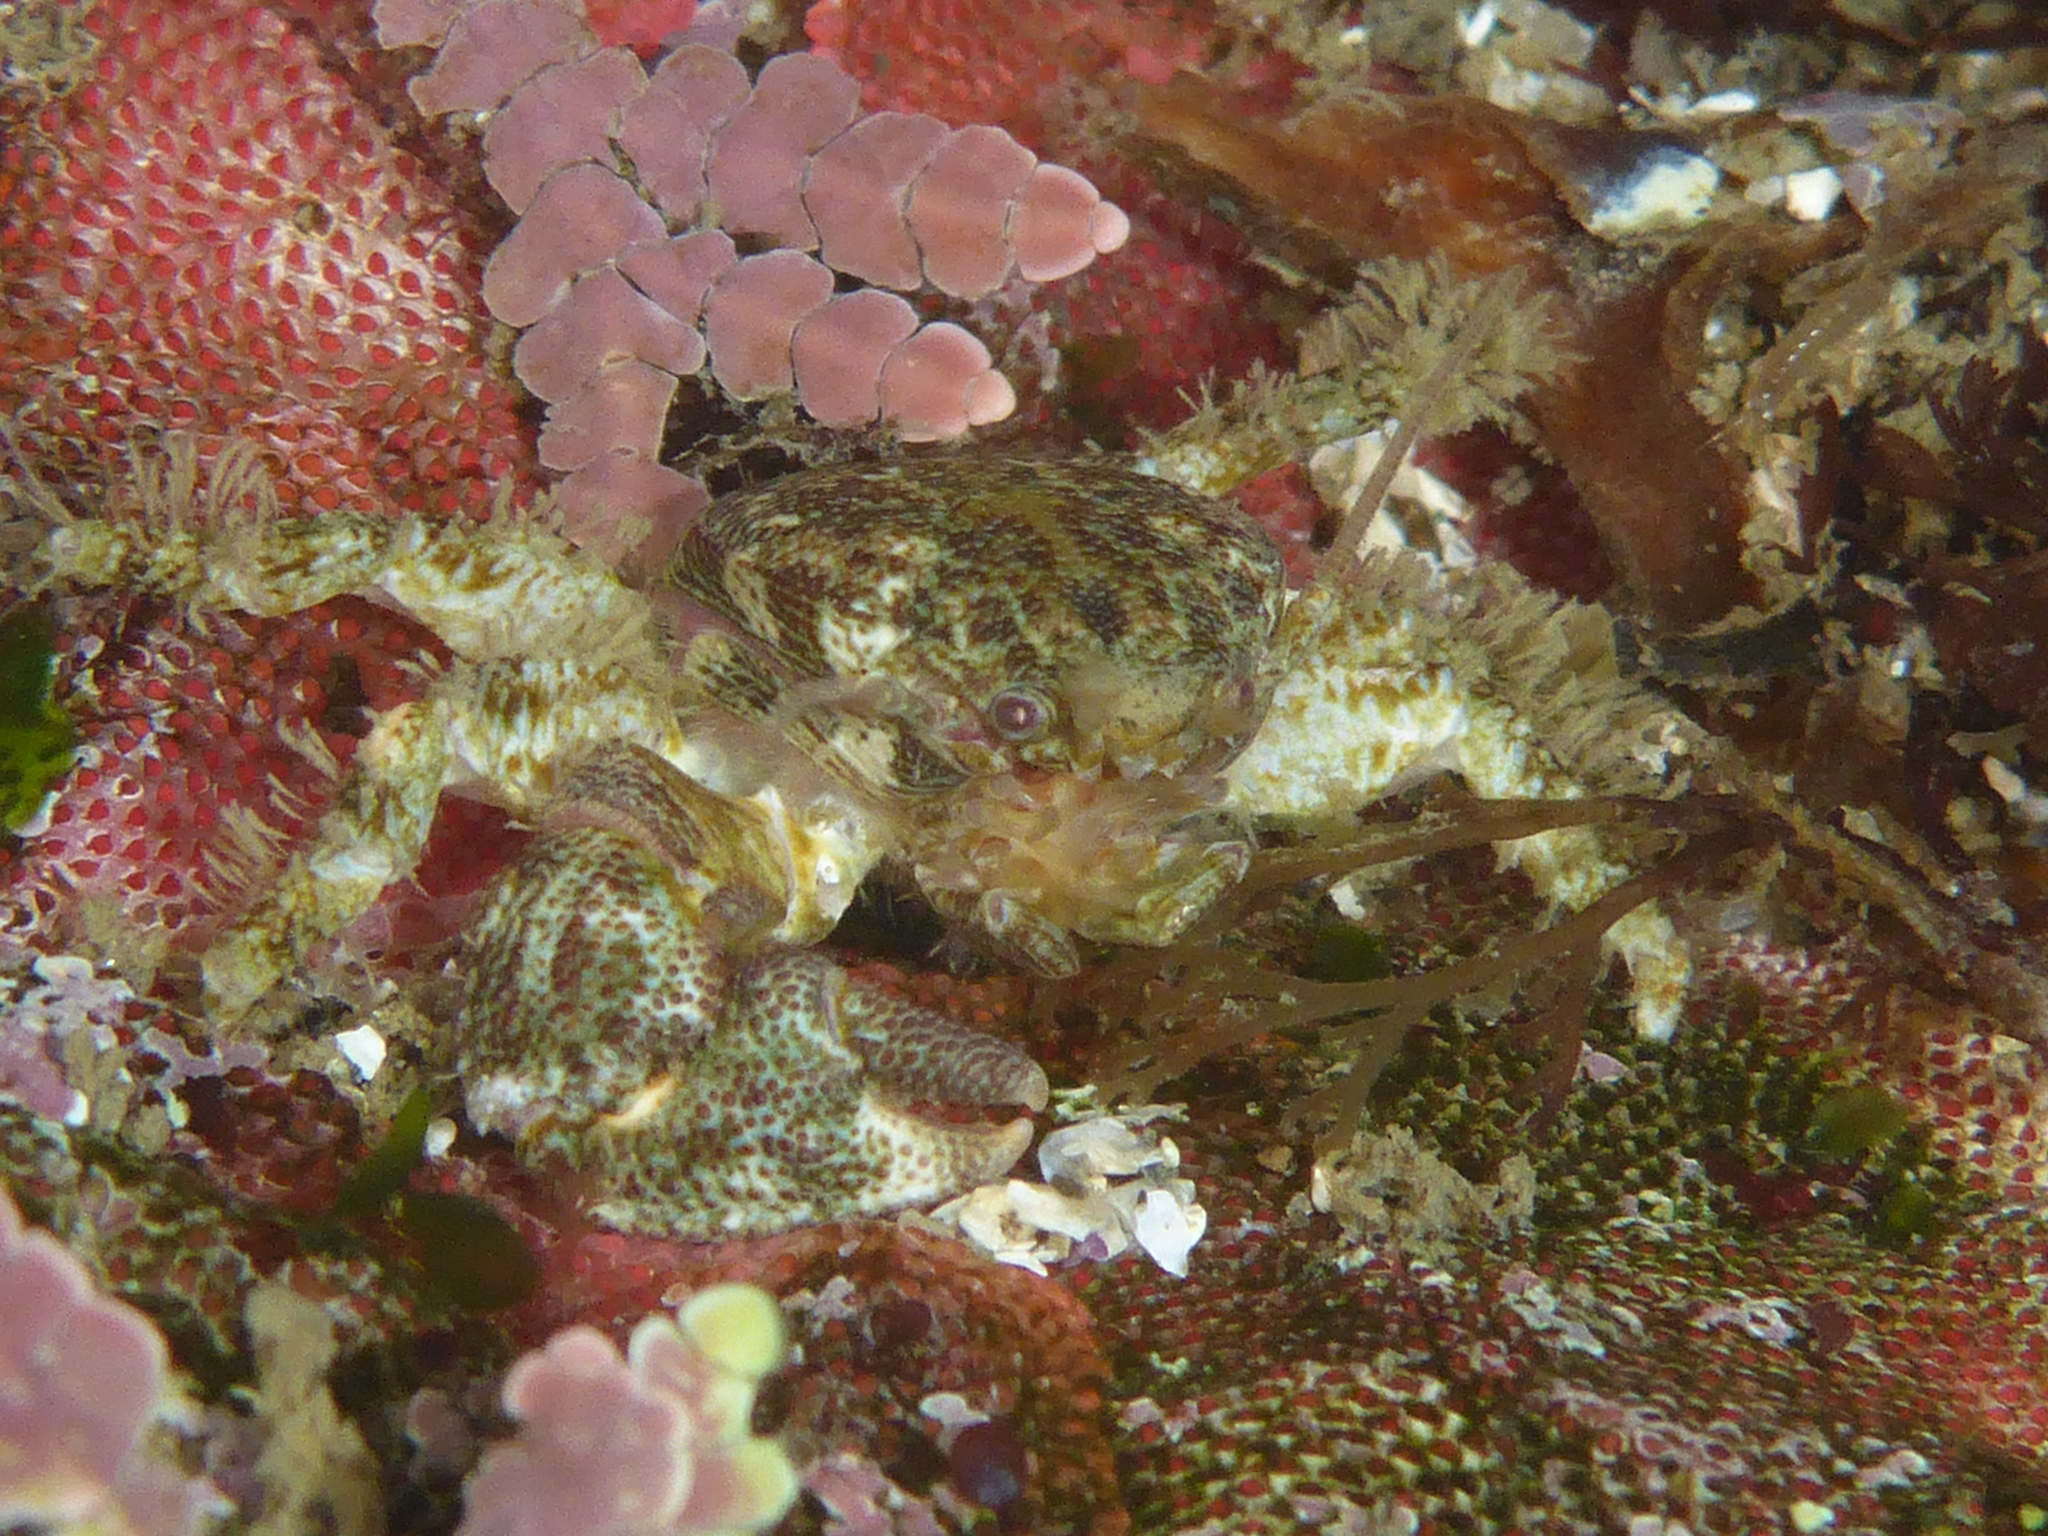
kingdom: Animalia
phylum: Arthropoda
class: Malacostraca
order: Decapoda
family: Porcellanidae
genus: Pachycheles
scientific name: Pachycheles rudis
